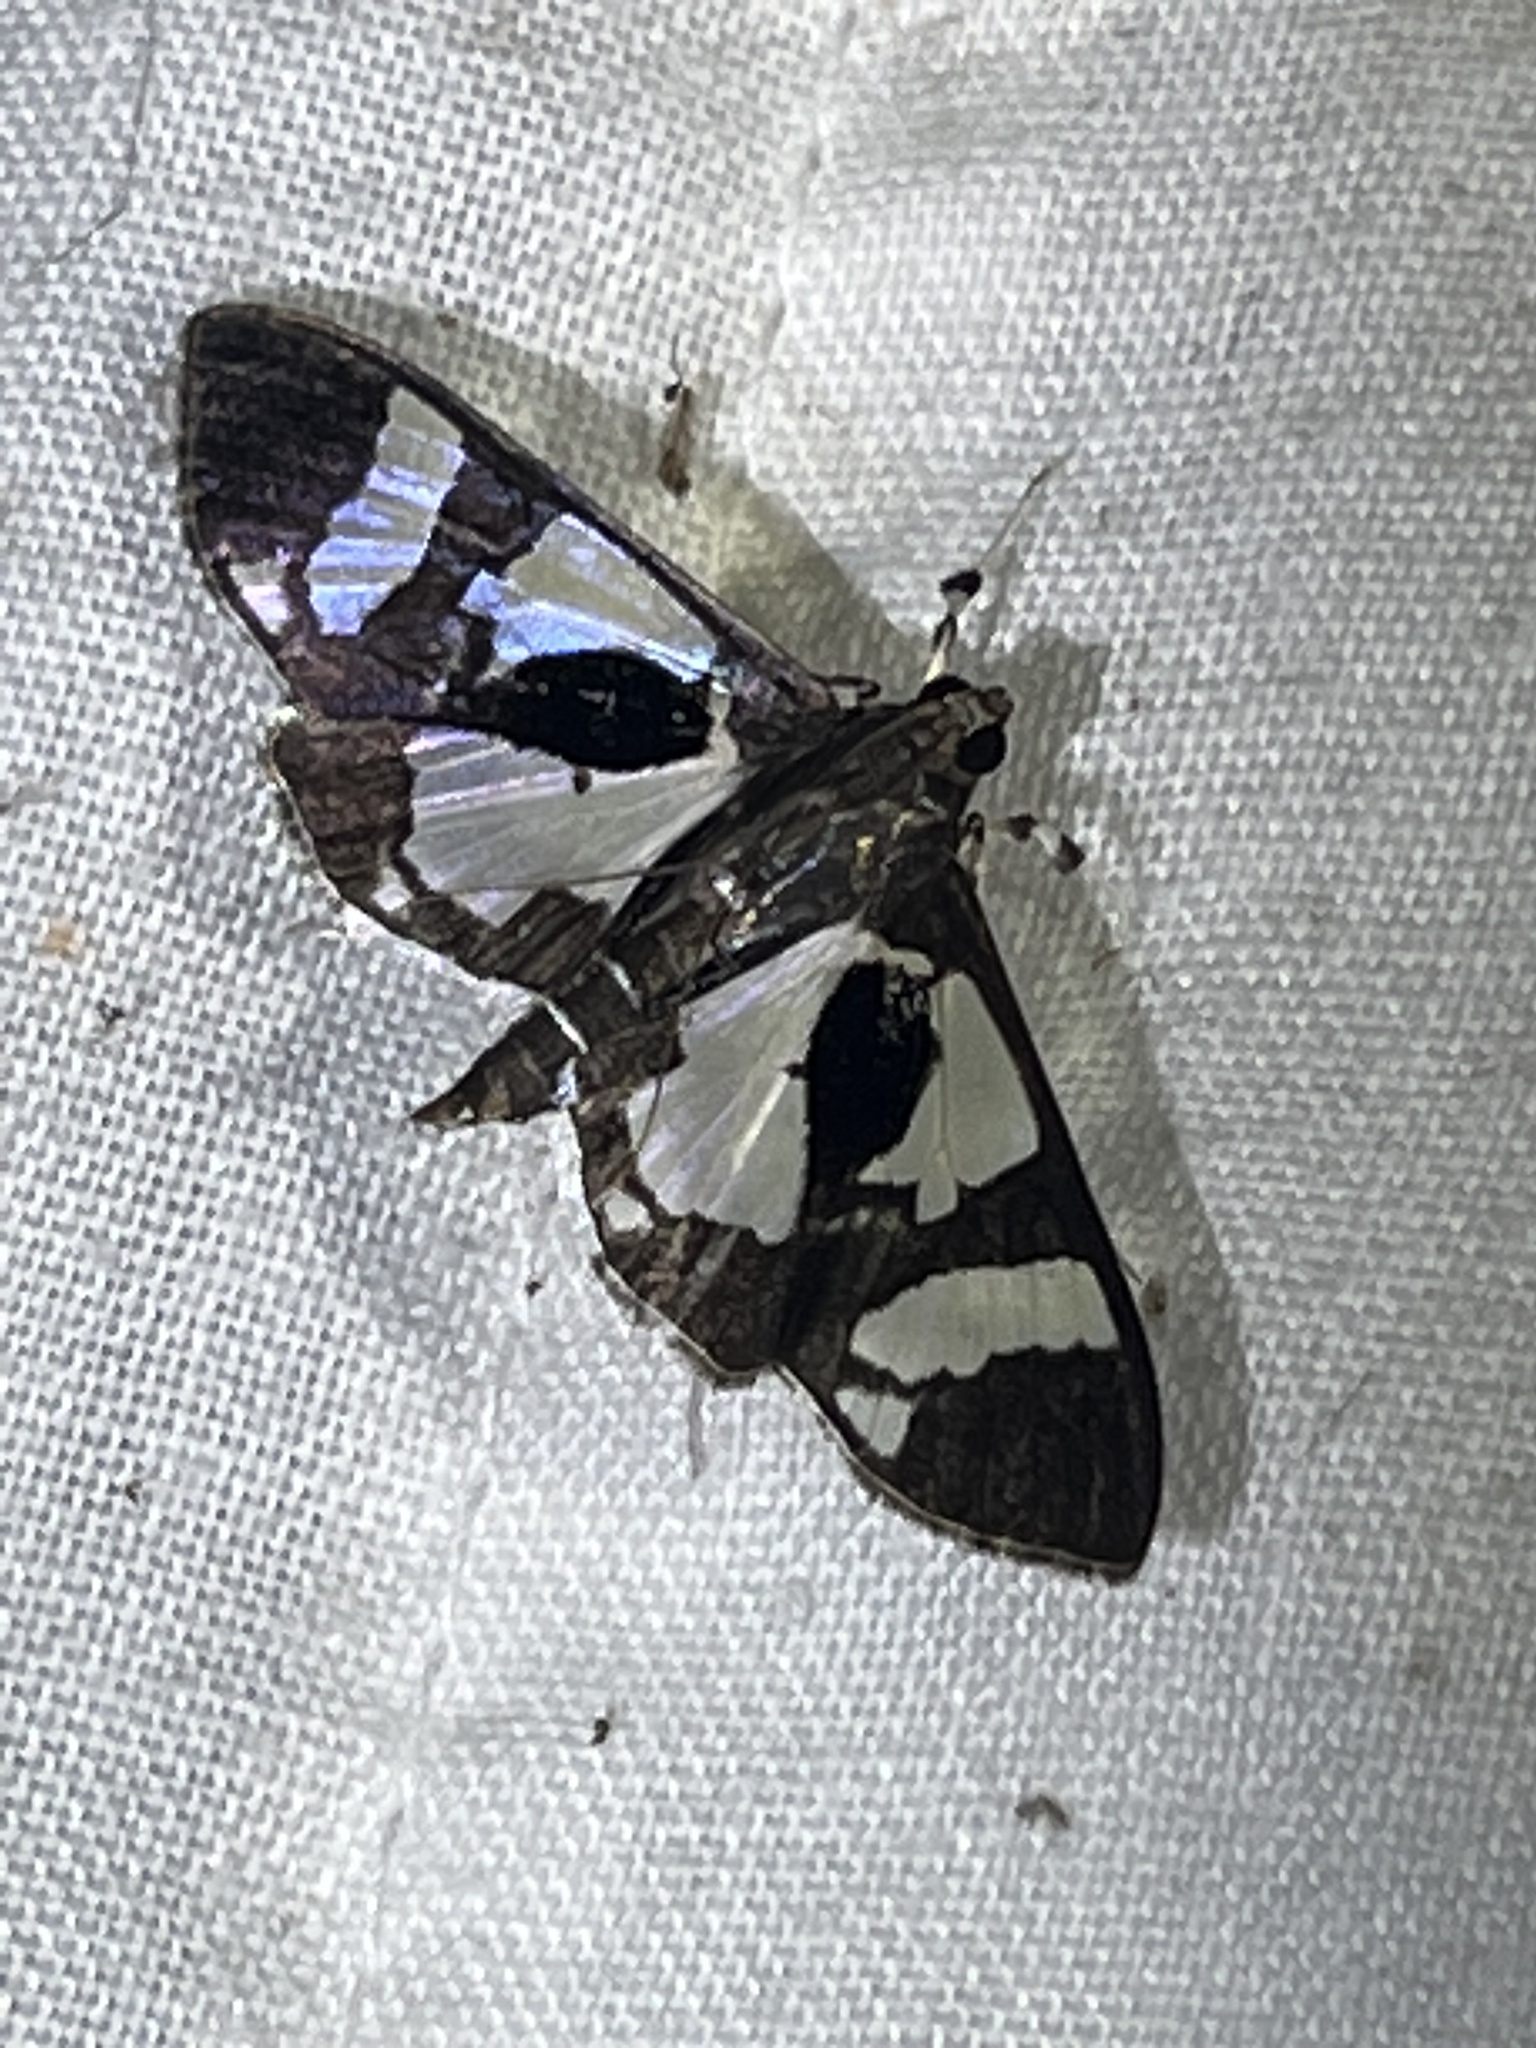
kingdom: Animalia
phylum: Arthropoda
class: Insecta
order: Lepidoptera
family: Crambidae
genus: Desmia
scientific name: Desmia bajulalis
